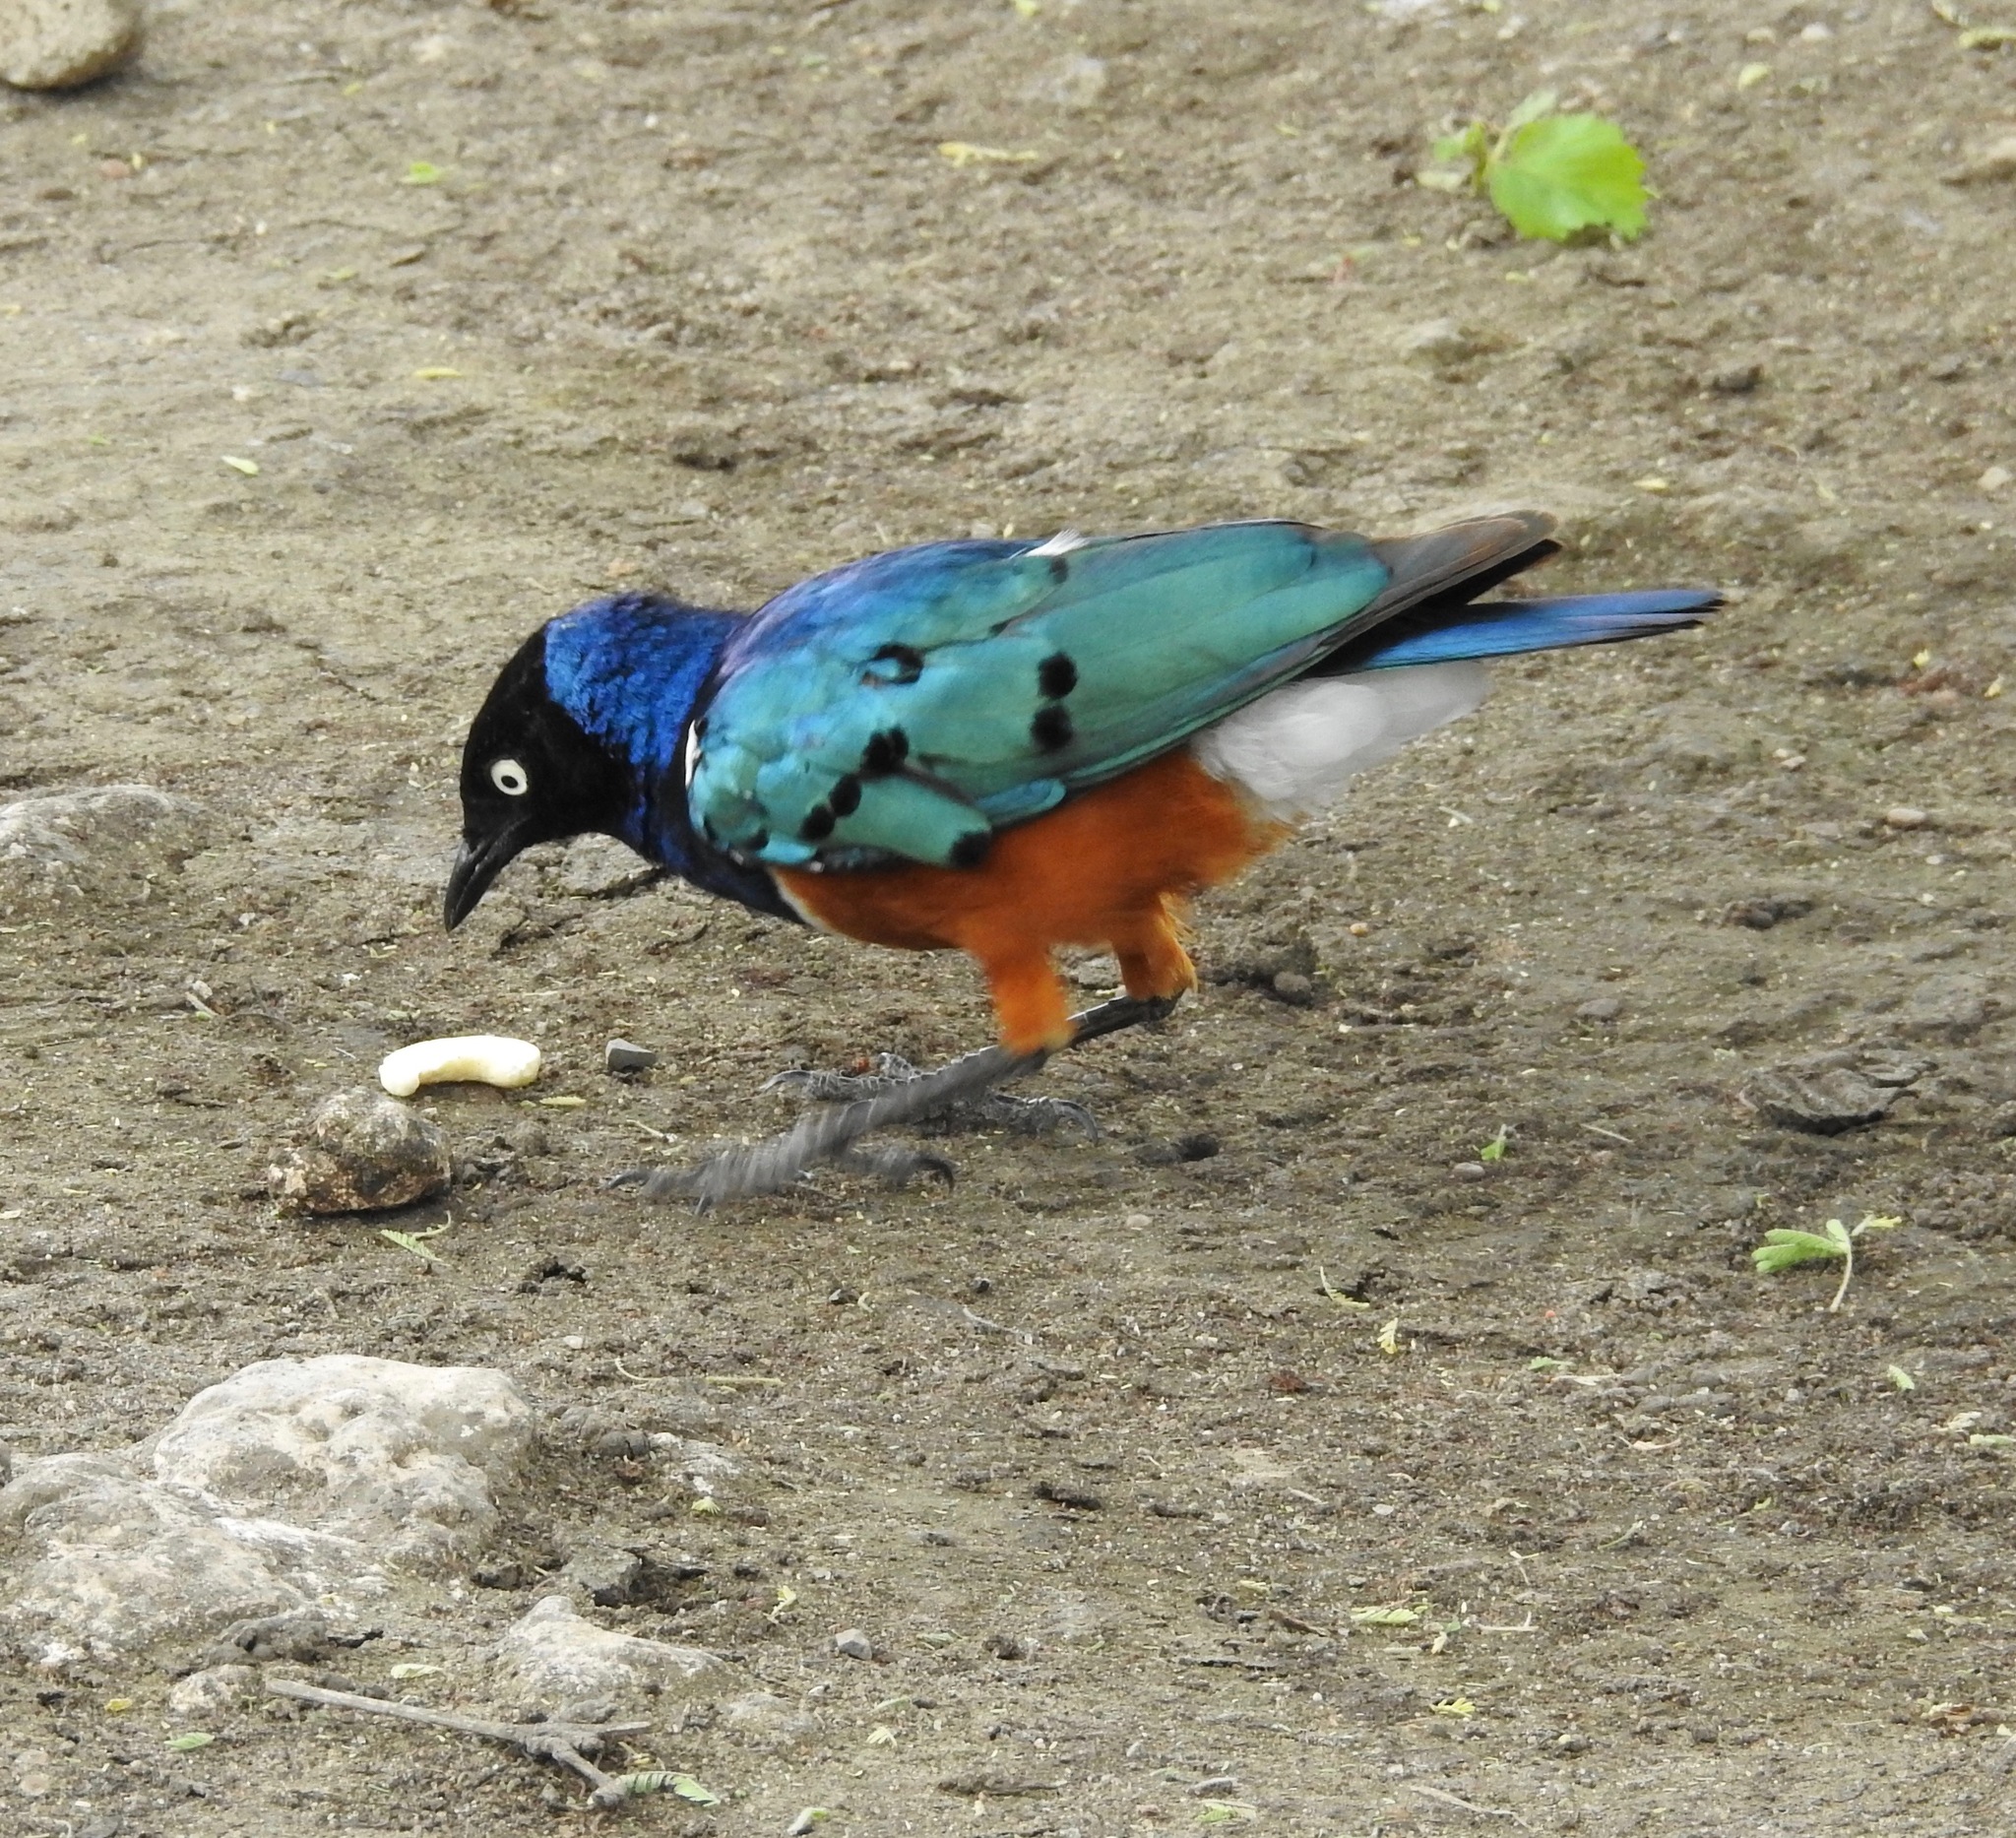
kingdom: Animalia
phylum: Chordata
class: Aves
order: Passeriformes
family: Sturnidae
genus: Lamprotornis
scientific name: Lamprotornis superbus
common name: Superb starling
